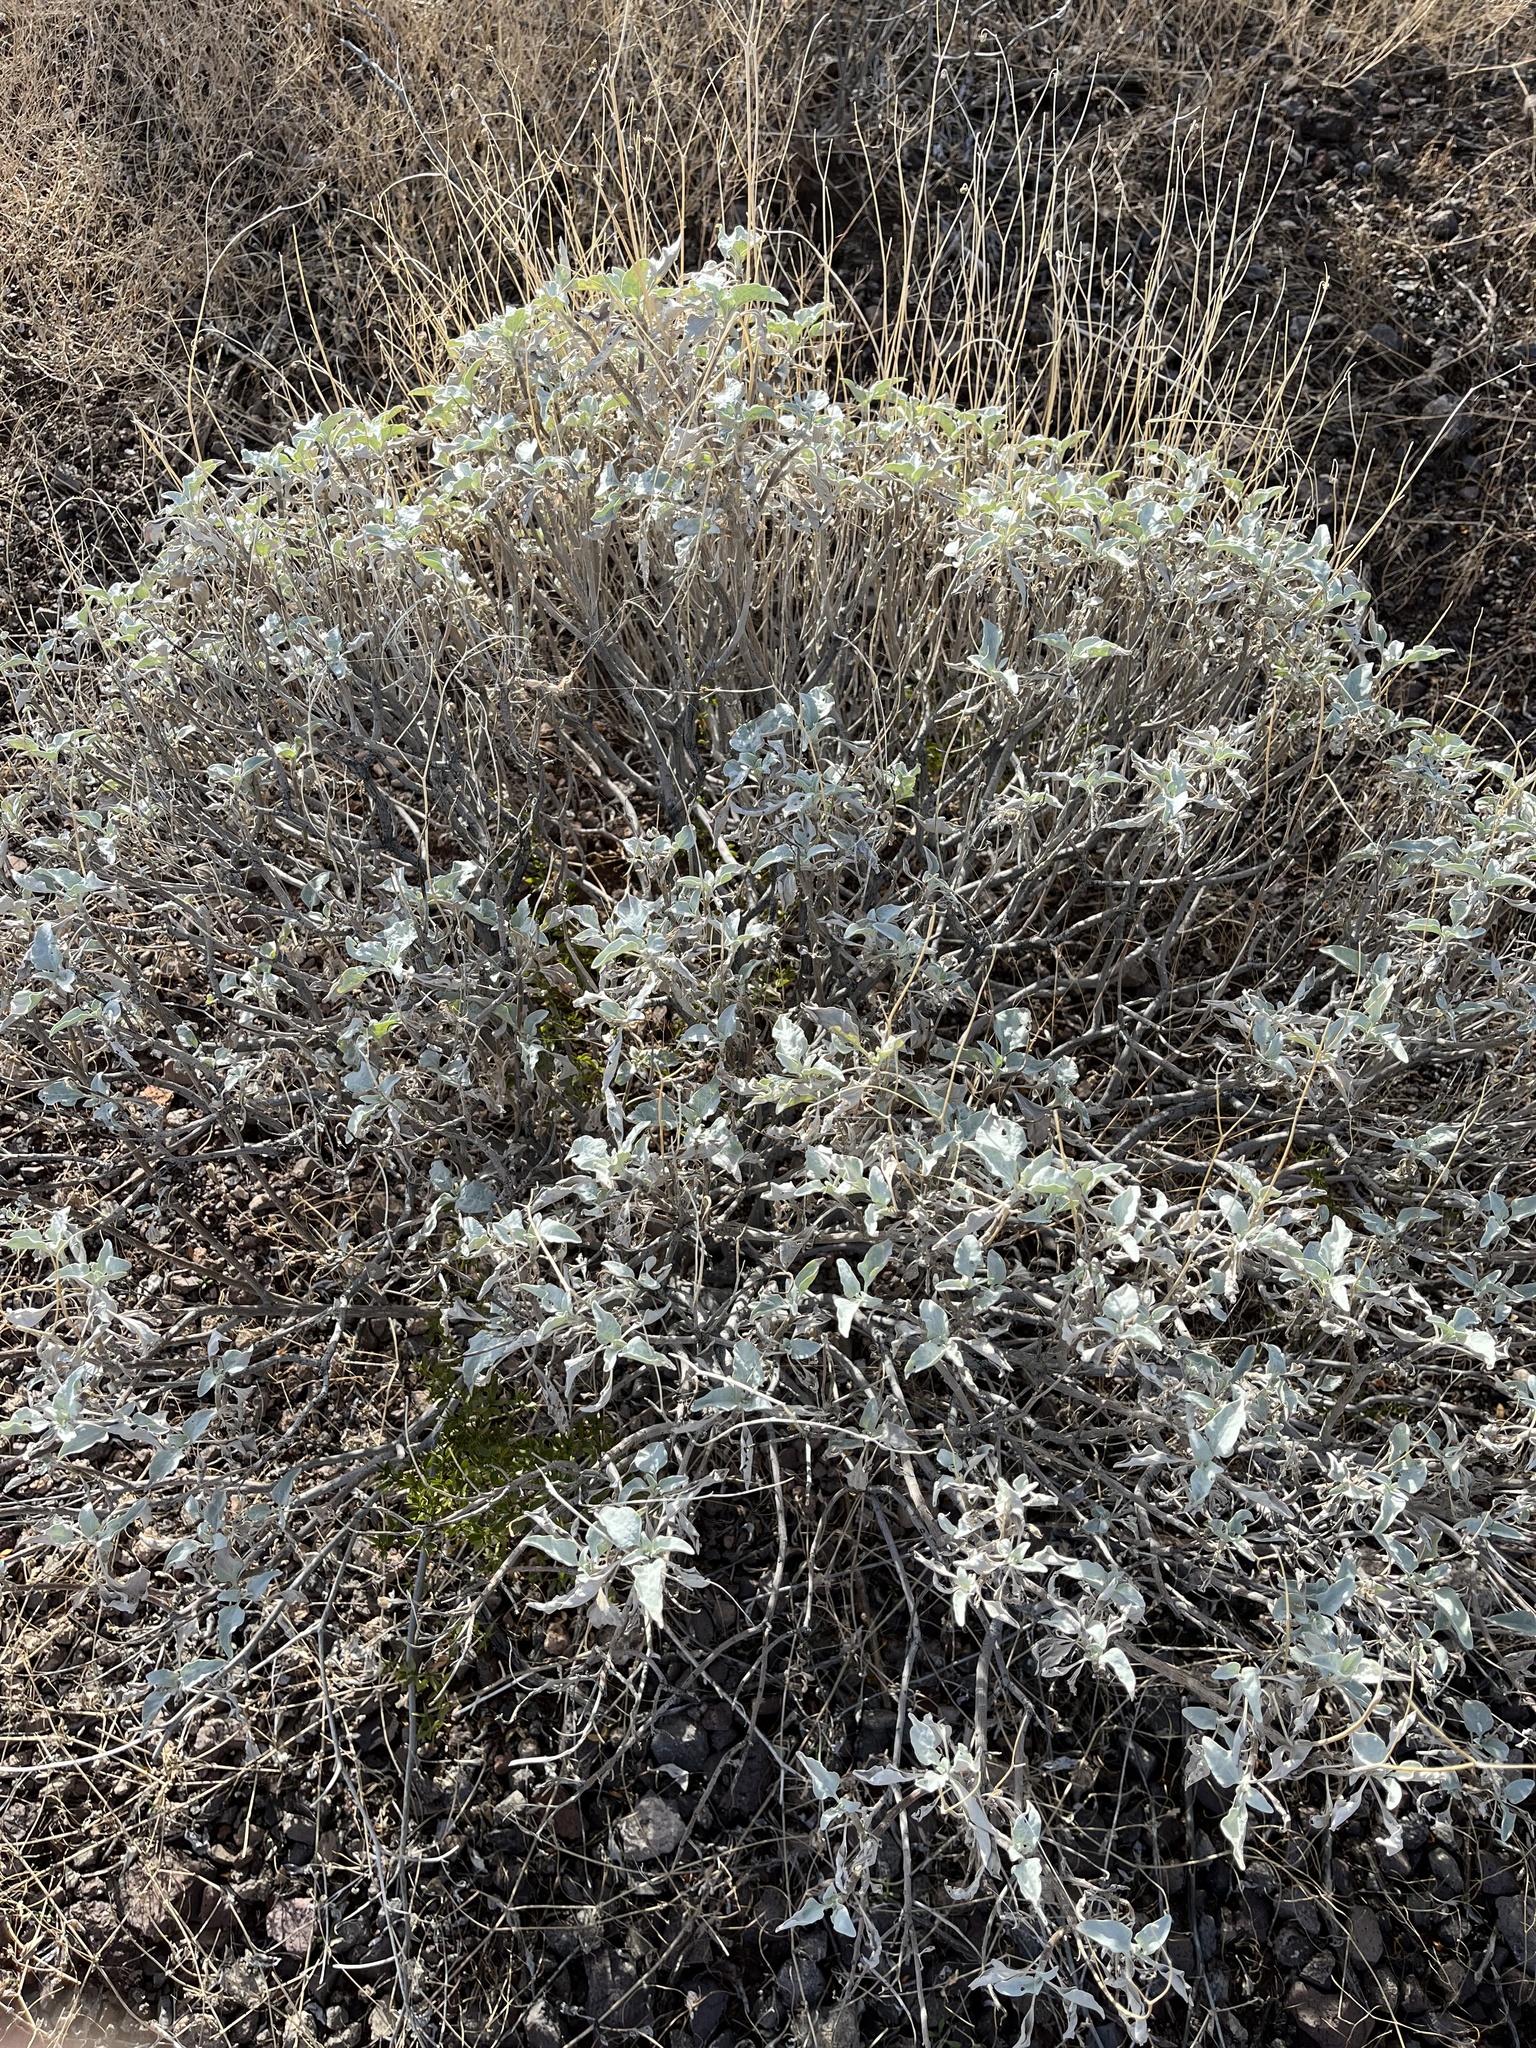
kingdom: Plantae
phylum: Tracheophyta
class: Magnoliopsida
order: Asterales
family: Asteraceae
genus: Encelia
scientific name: Encelia farinosa
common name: Brittlebush
